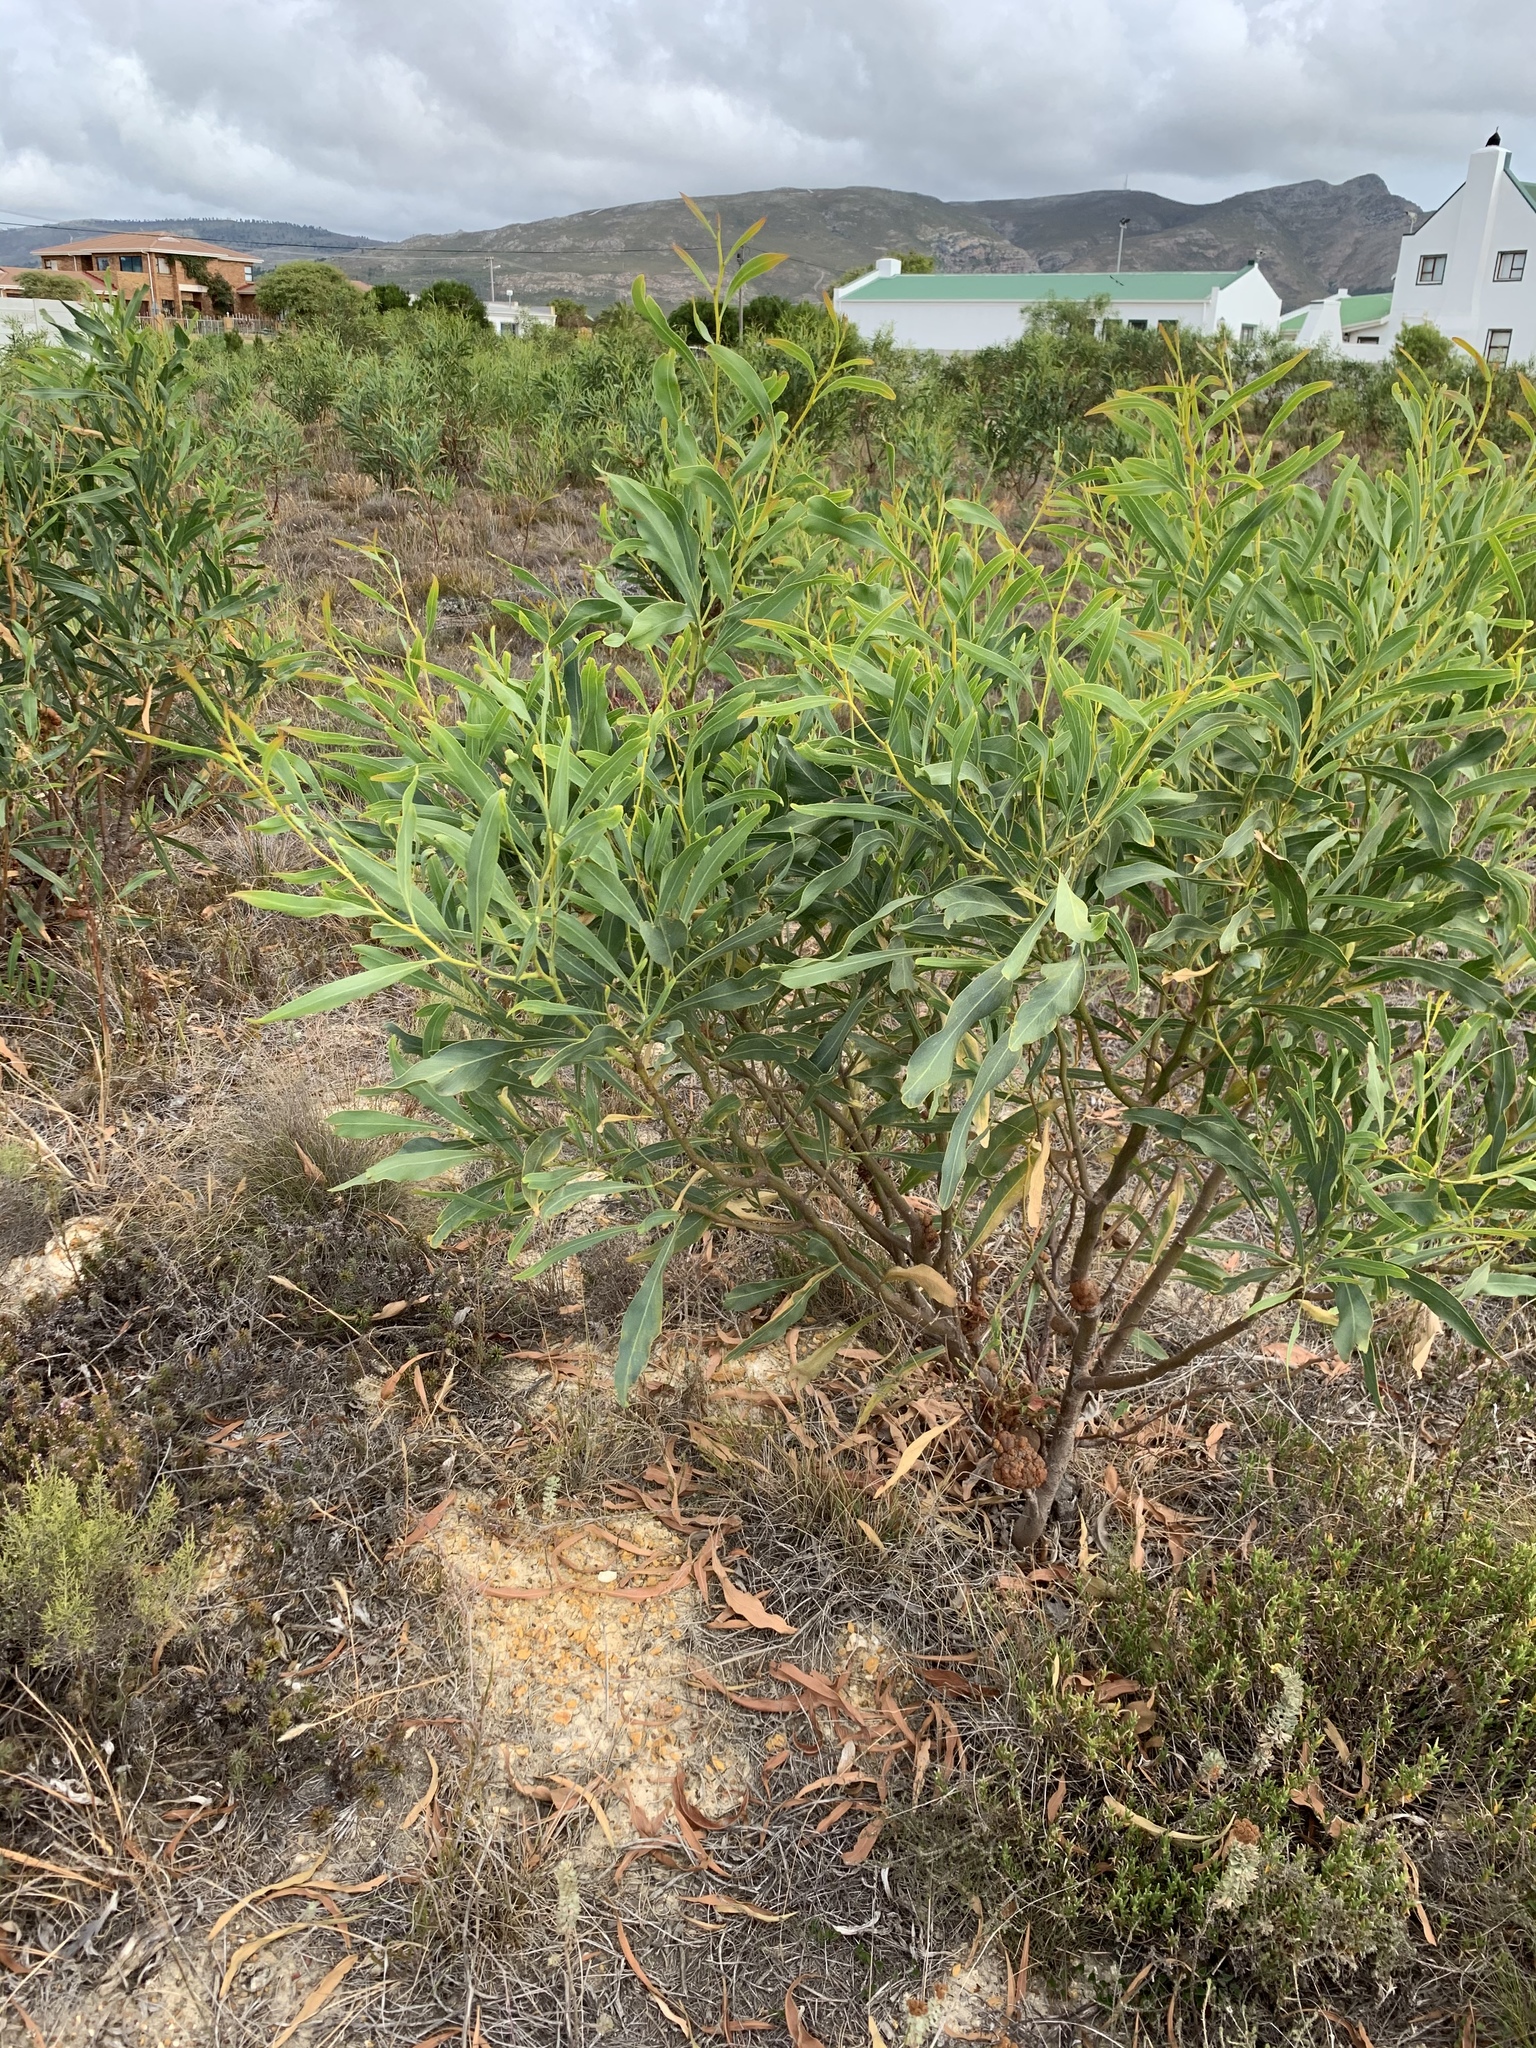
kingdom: Plantae
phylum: Tracheophyta
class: Magnoliopsida
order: Fabales
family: Fabaceae
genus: Acacia
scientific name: Acacia saligna
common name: Orange wattle
